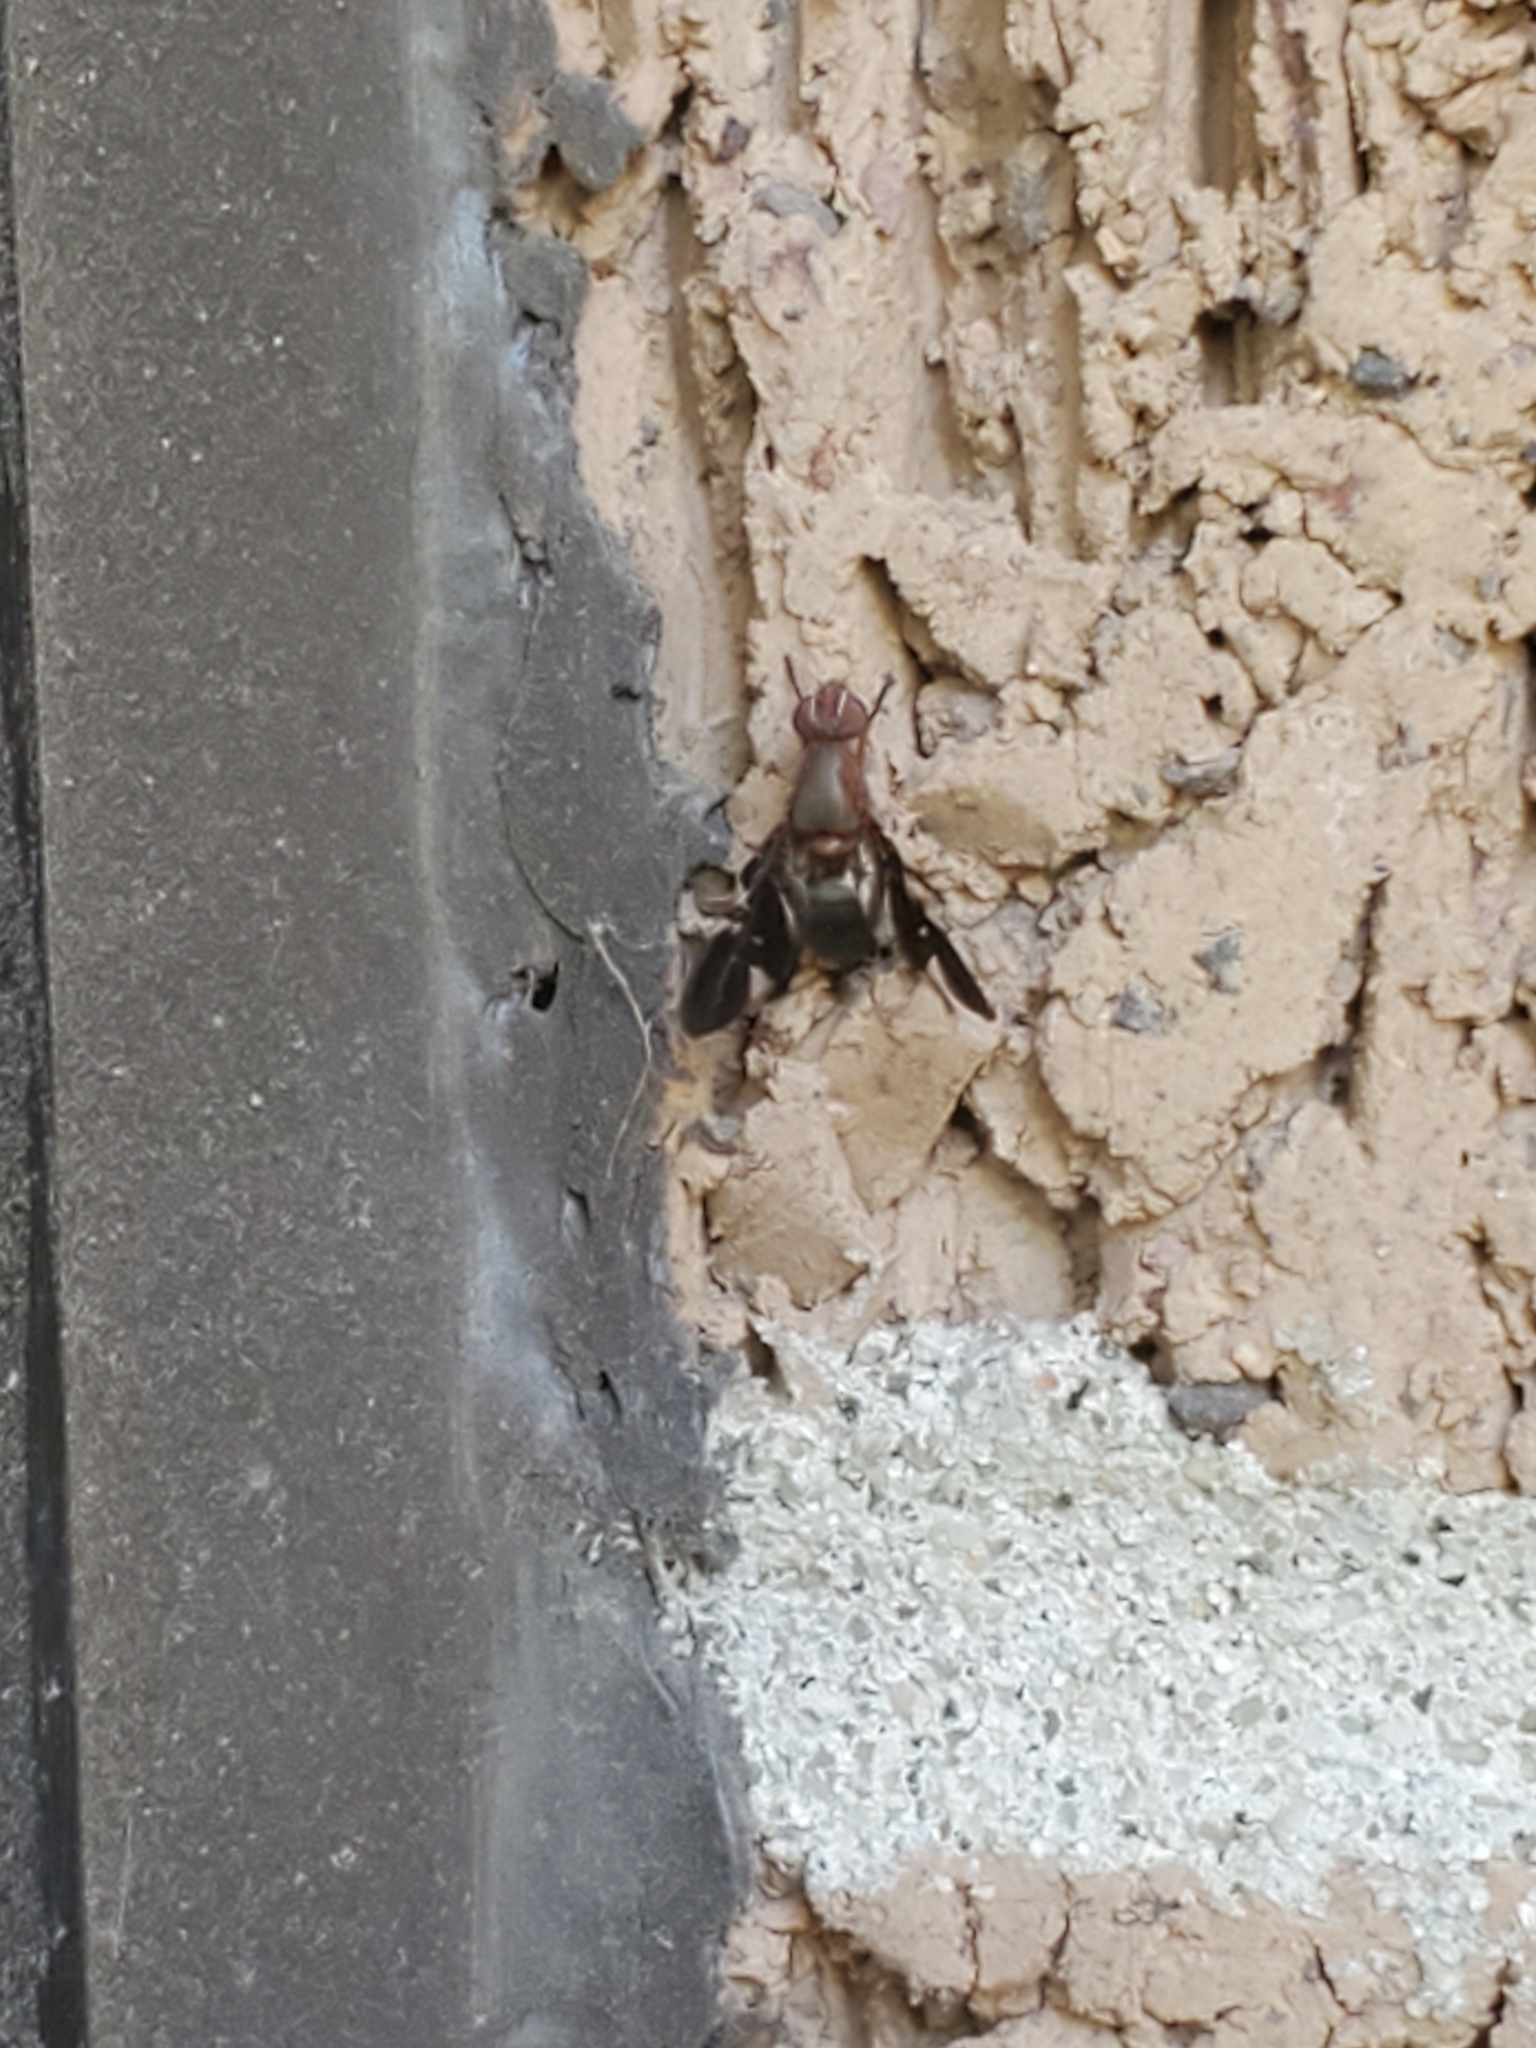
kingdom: Animalia
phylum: Arthropoda
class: Insecta
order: Diptera
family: Ulidiidae
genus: Delphinia
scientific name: Delphinia picta
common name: Common picture-winged fly
